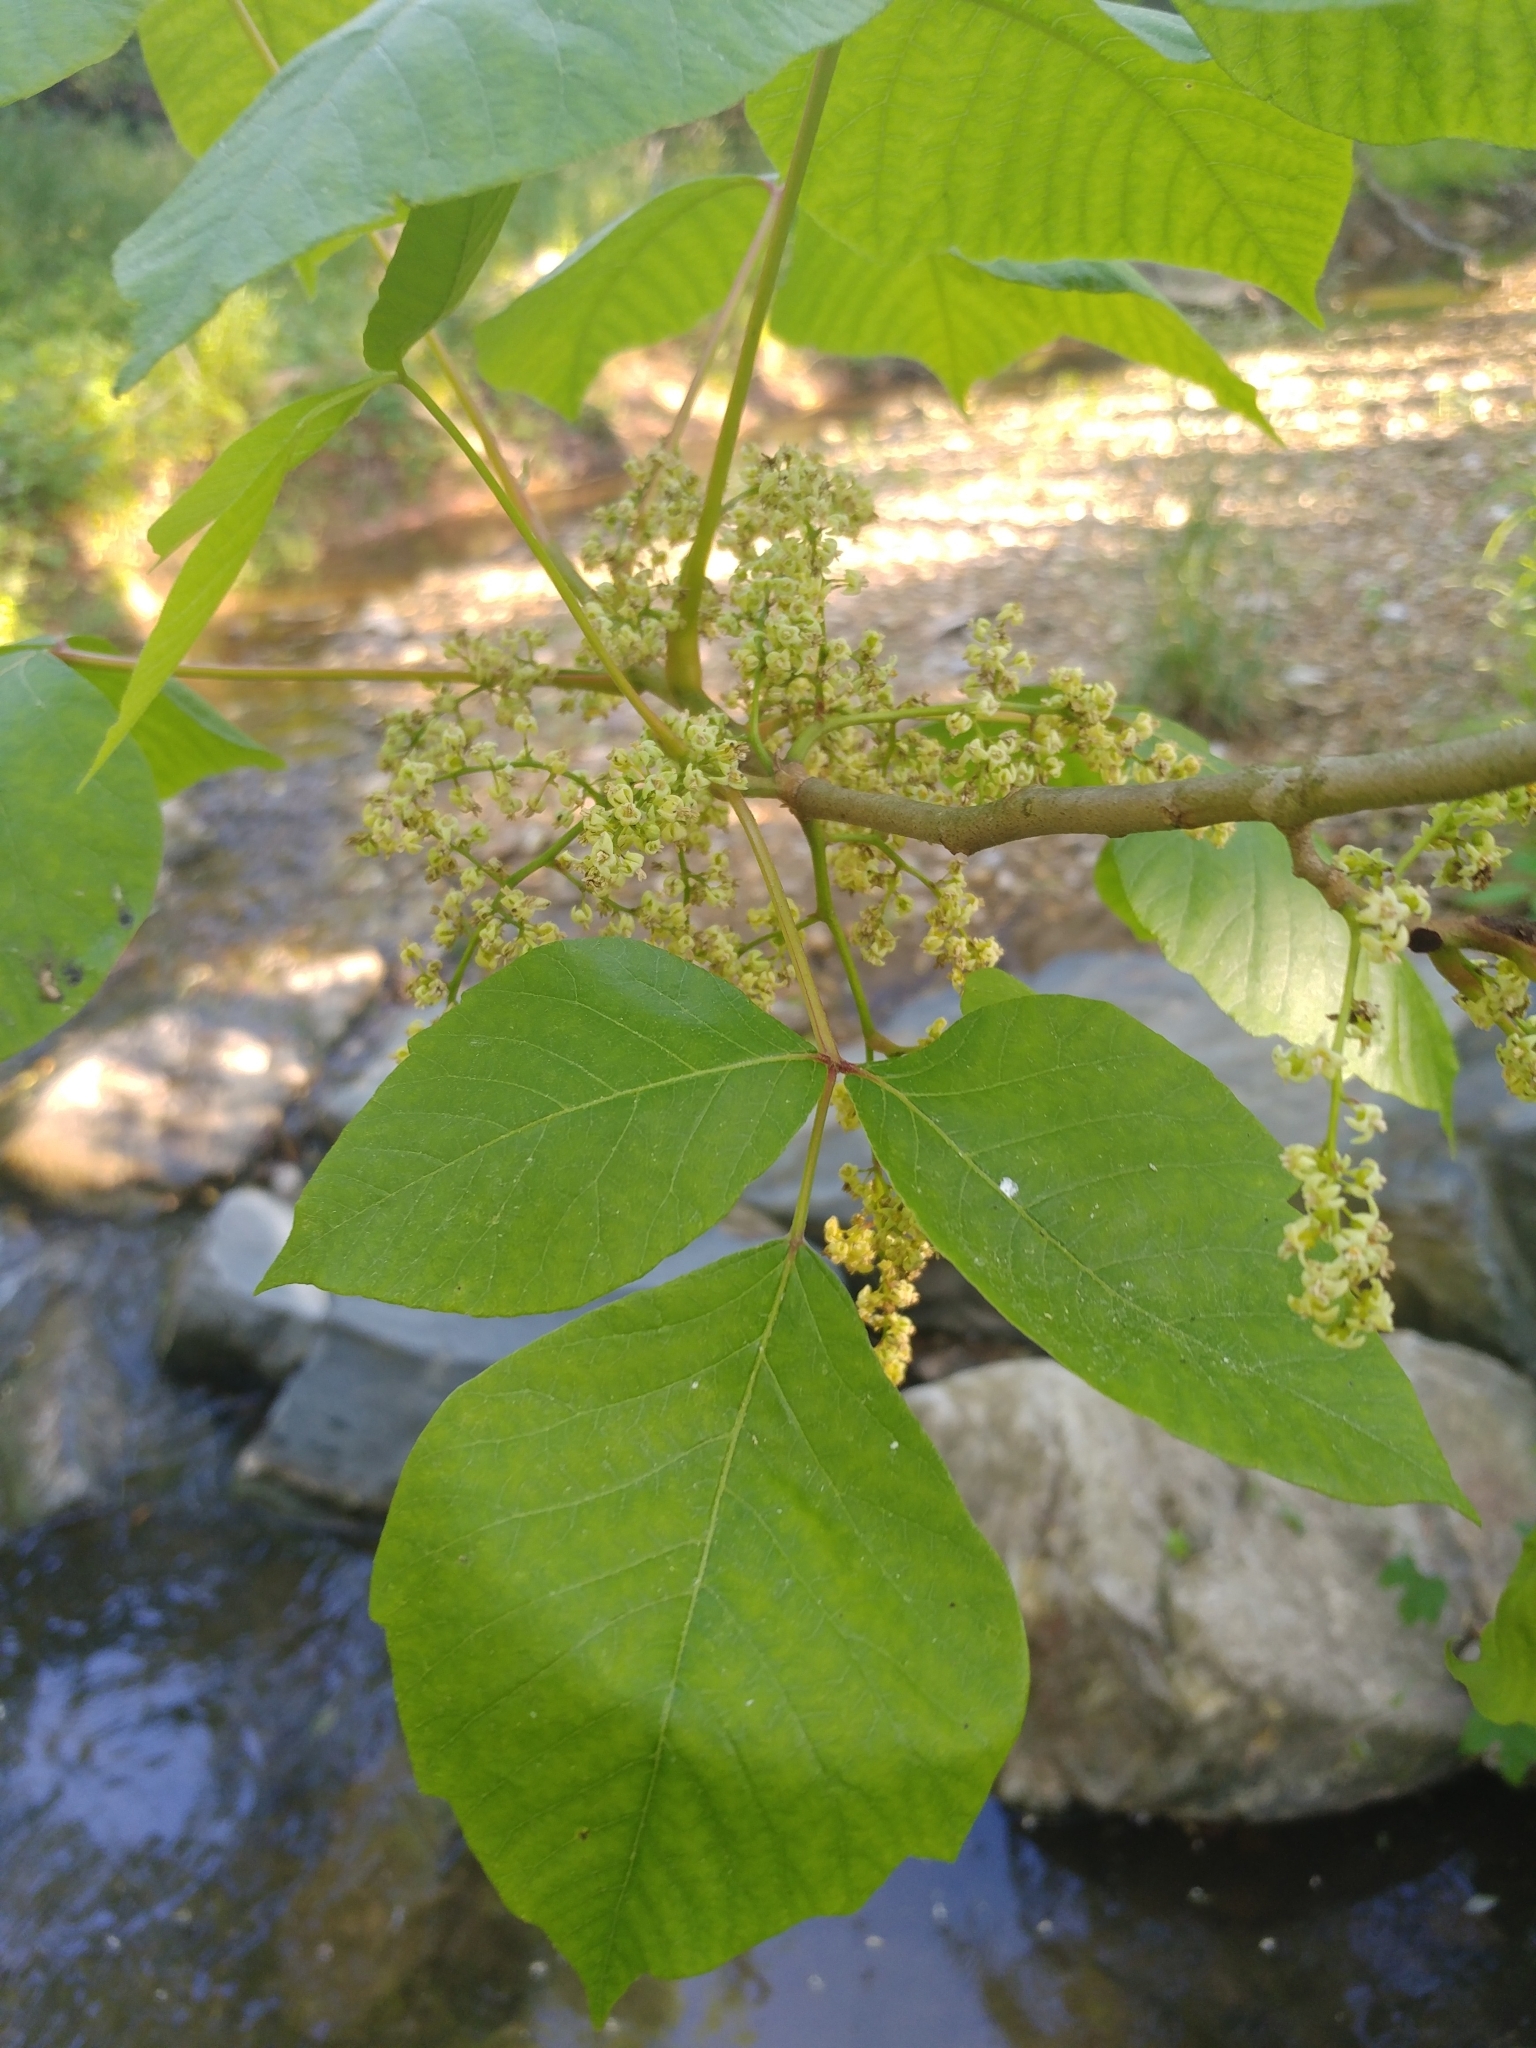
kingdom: Plantae
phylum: Tracheophyta
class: Magnoliopsida
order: Sapindales
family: Anacardiaceae
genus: Toxicodendron
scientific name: Toxicodendron radicans
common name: Poison ivy
